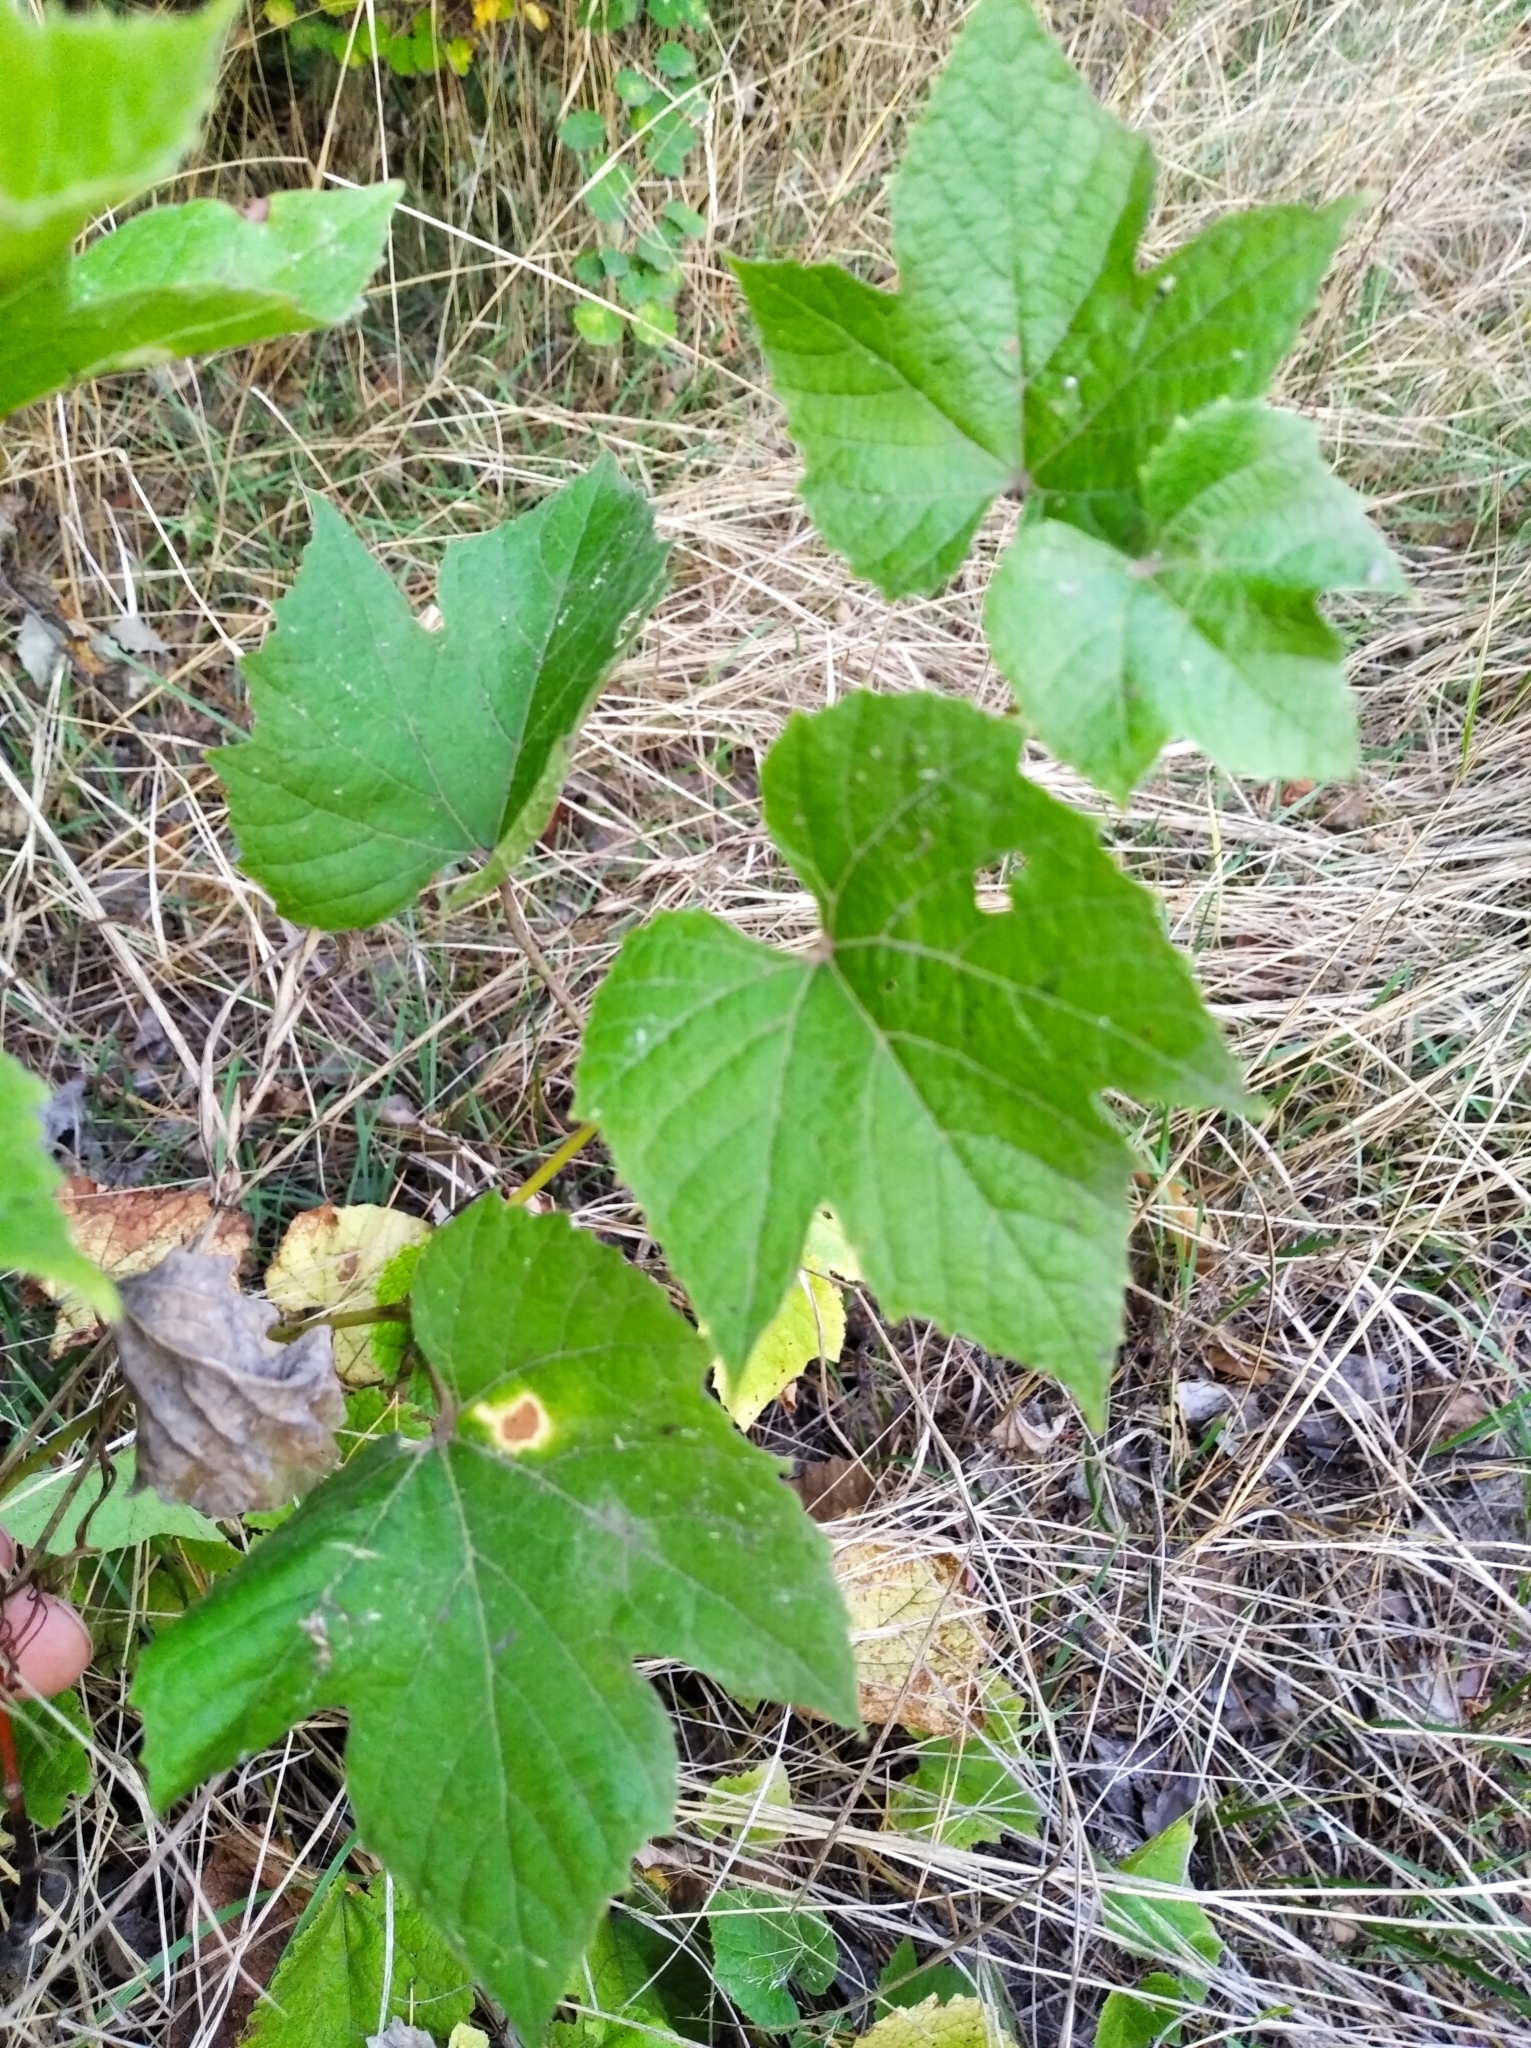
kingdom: Plantae
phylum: Tracheophyta
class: Magnoliopsida
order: Vitales
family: Vitaceae
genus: Vitis
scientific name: Vitis vinifera
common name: Grape-vine
